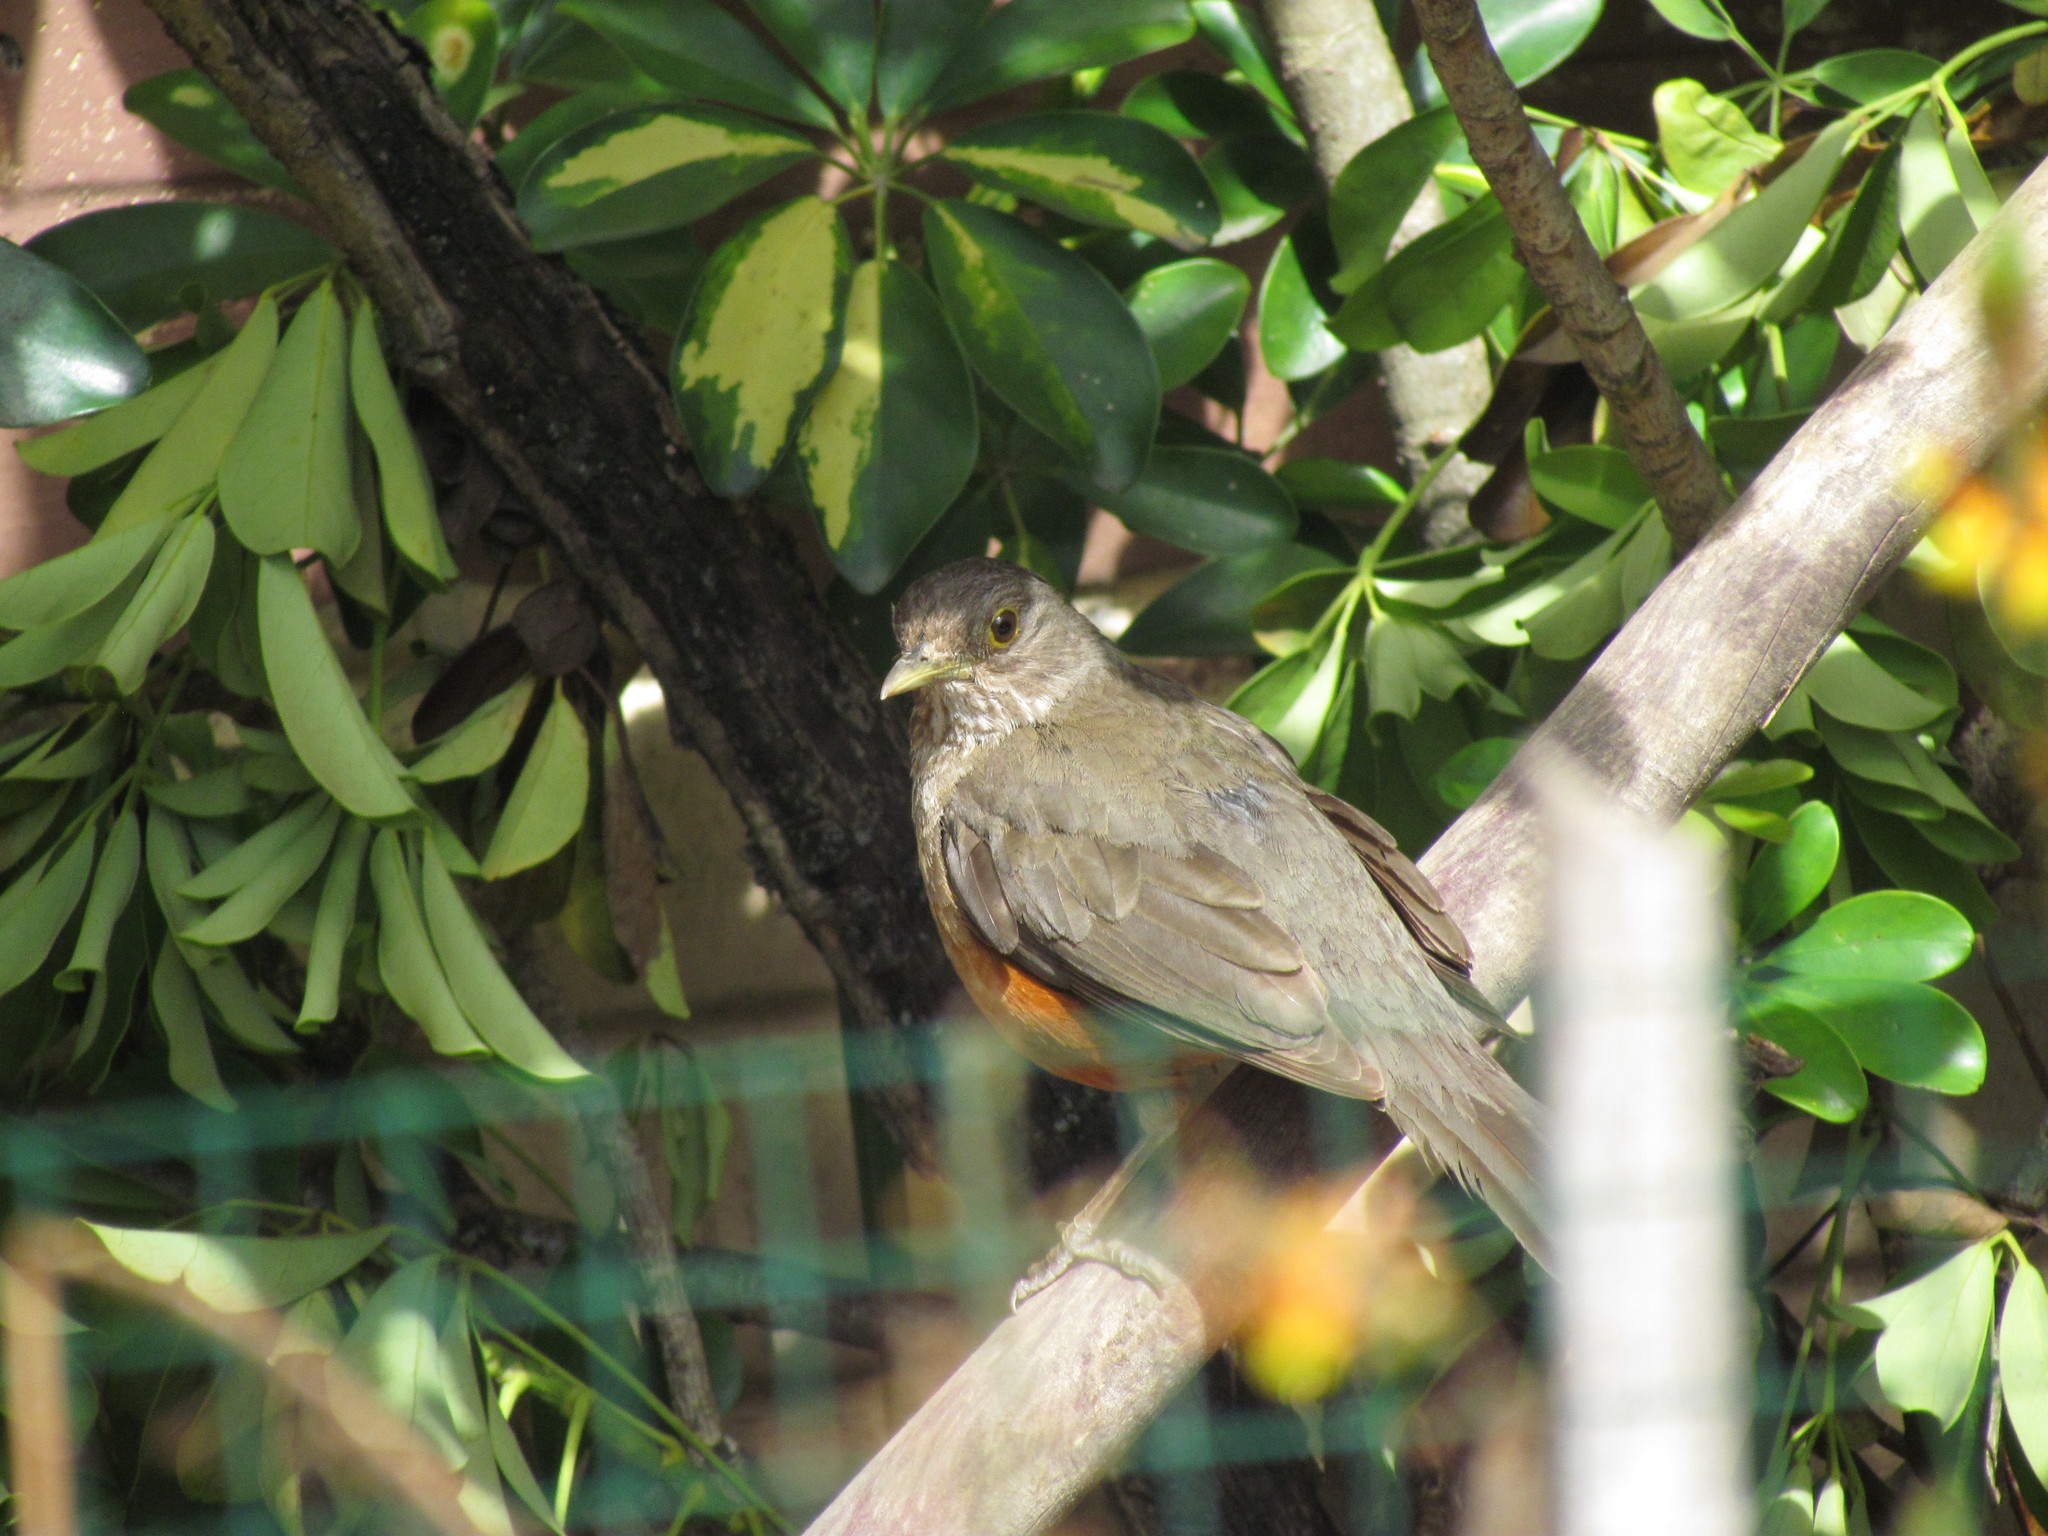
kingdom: Animalia
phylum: Chordata
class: Aves
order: Passeriformes
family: Turdidae
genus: Turdus
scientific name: Turdus rufiventris
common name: Rufous-bellied thrush
